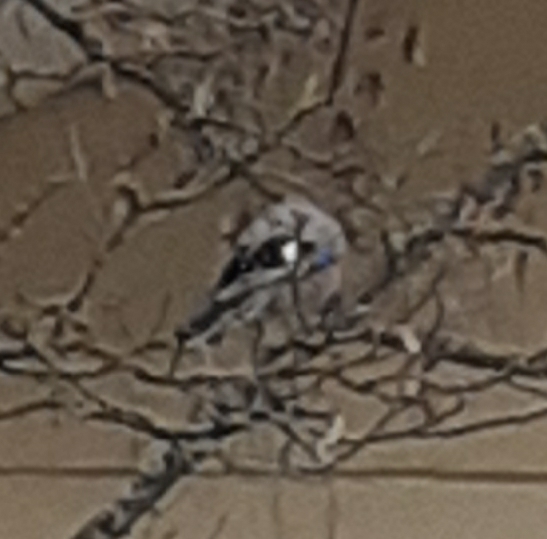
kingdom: Animalia
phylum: Chordata
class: Aves
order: Passeriformes
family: Corvidae
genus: Garrulus
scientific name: Garrulus glandarius
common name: Eurasian jay
